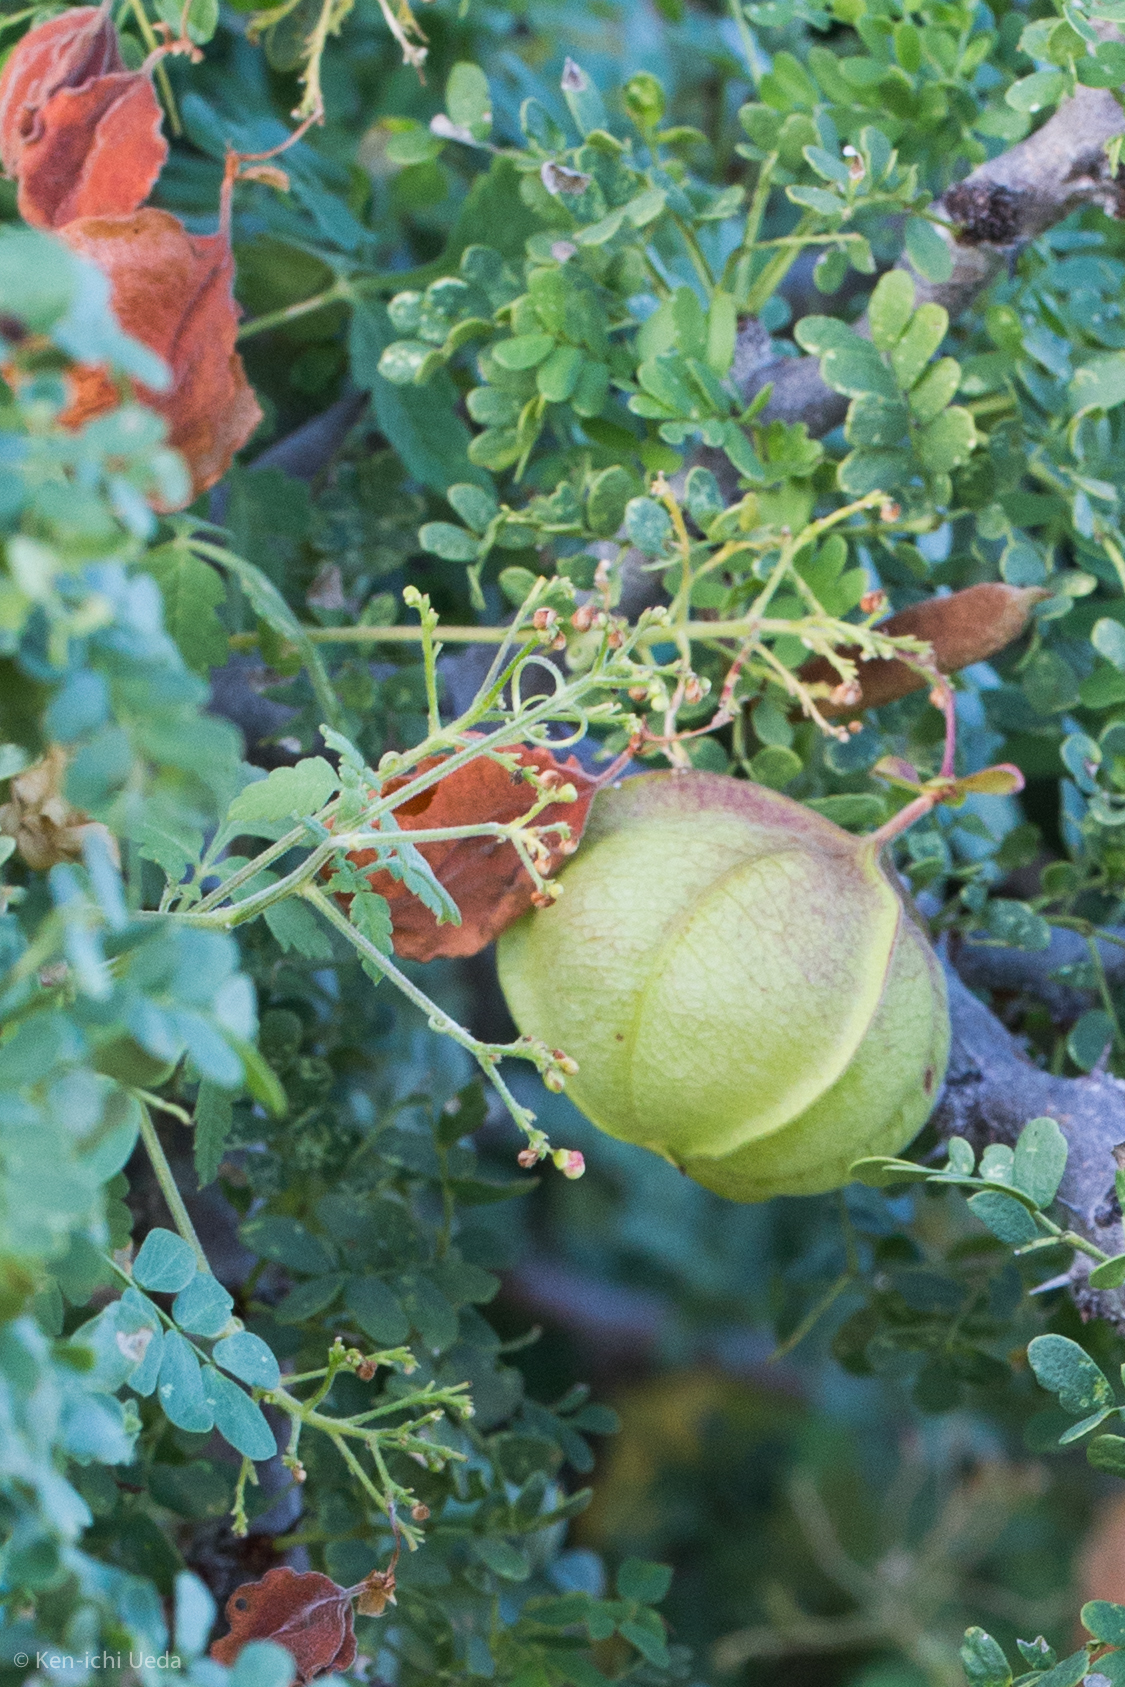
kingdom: Plantae
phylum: Tracheophyta
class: Magnoliopsida
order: Sapindales
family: Sapindaceae
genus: Cardiospermum
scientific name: Cardiospermum corindum
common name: Faux persil
